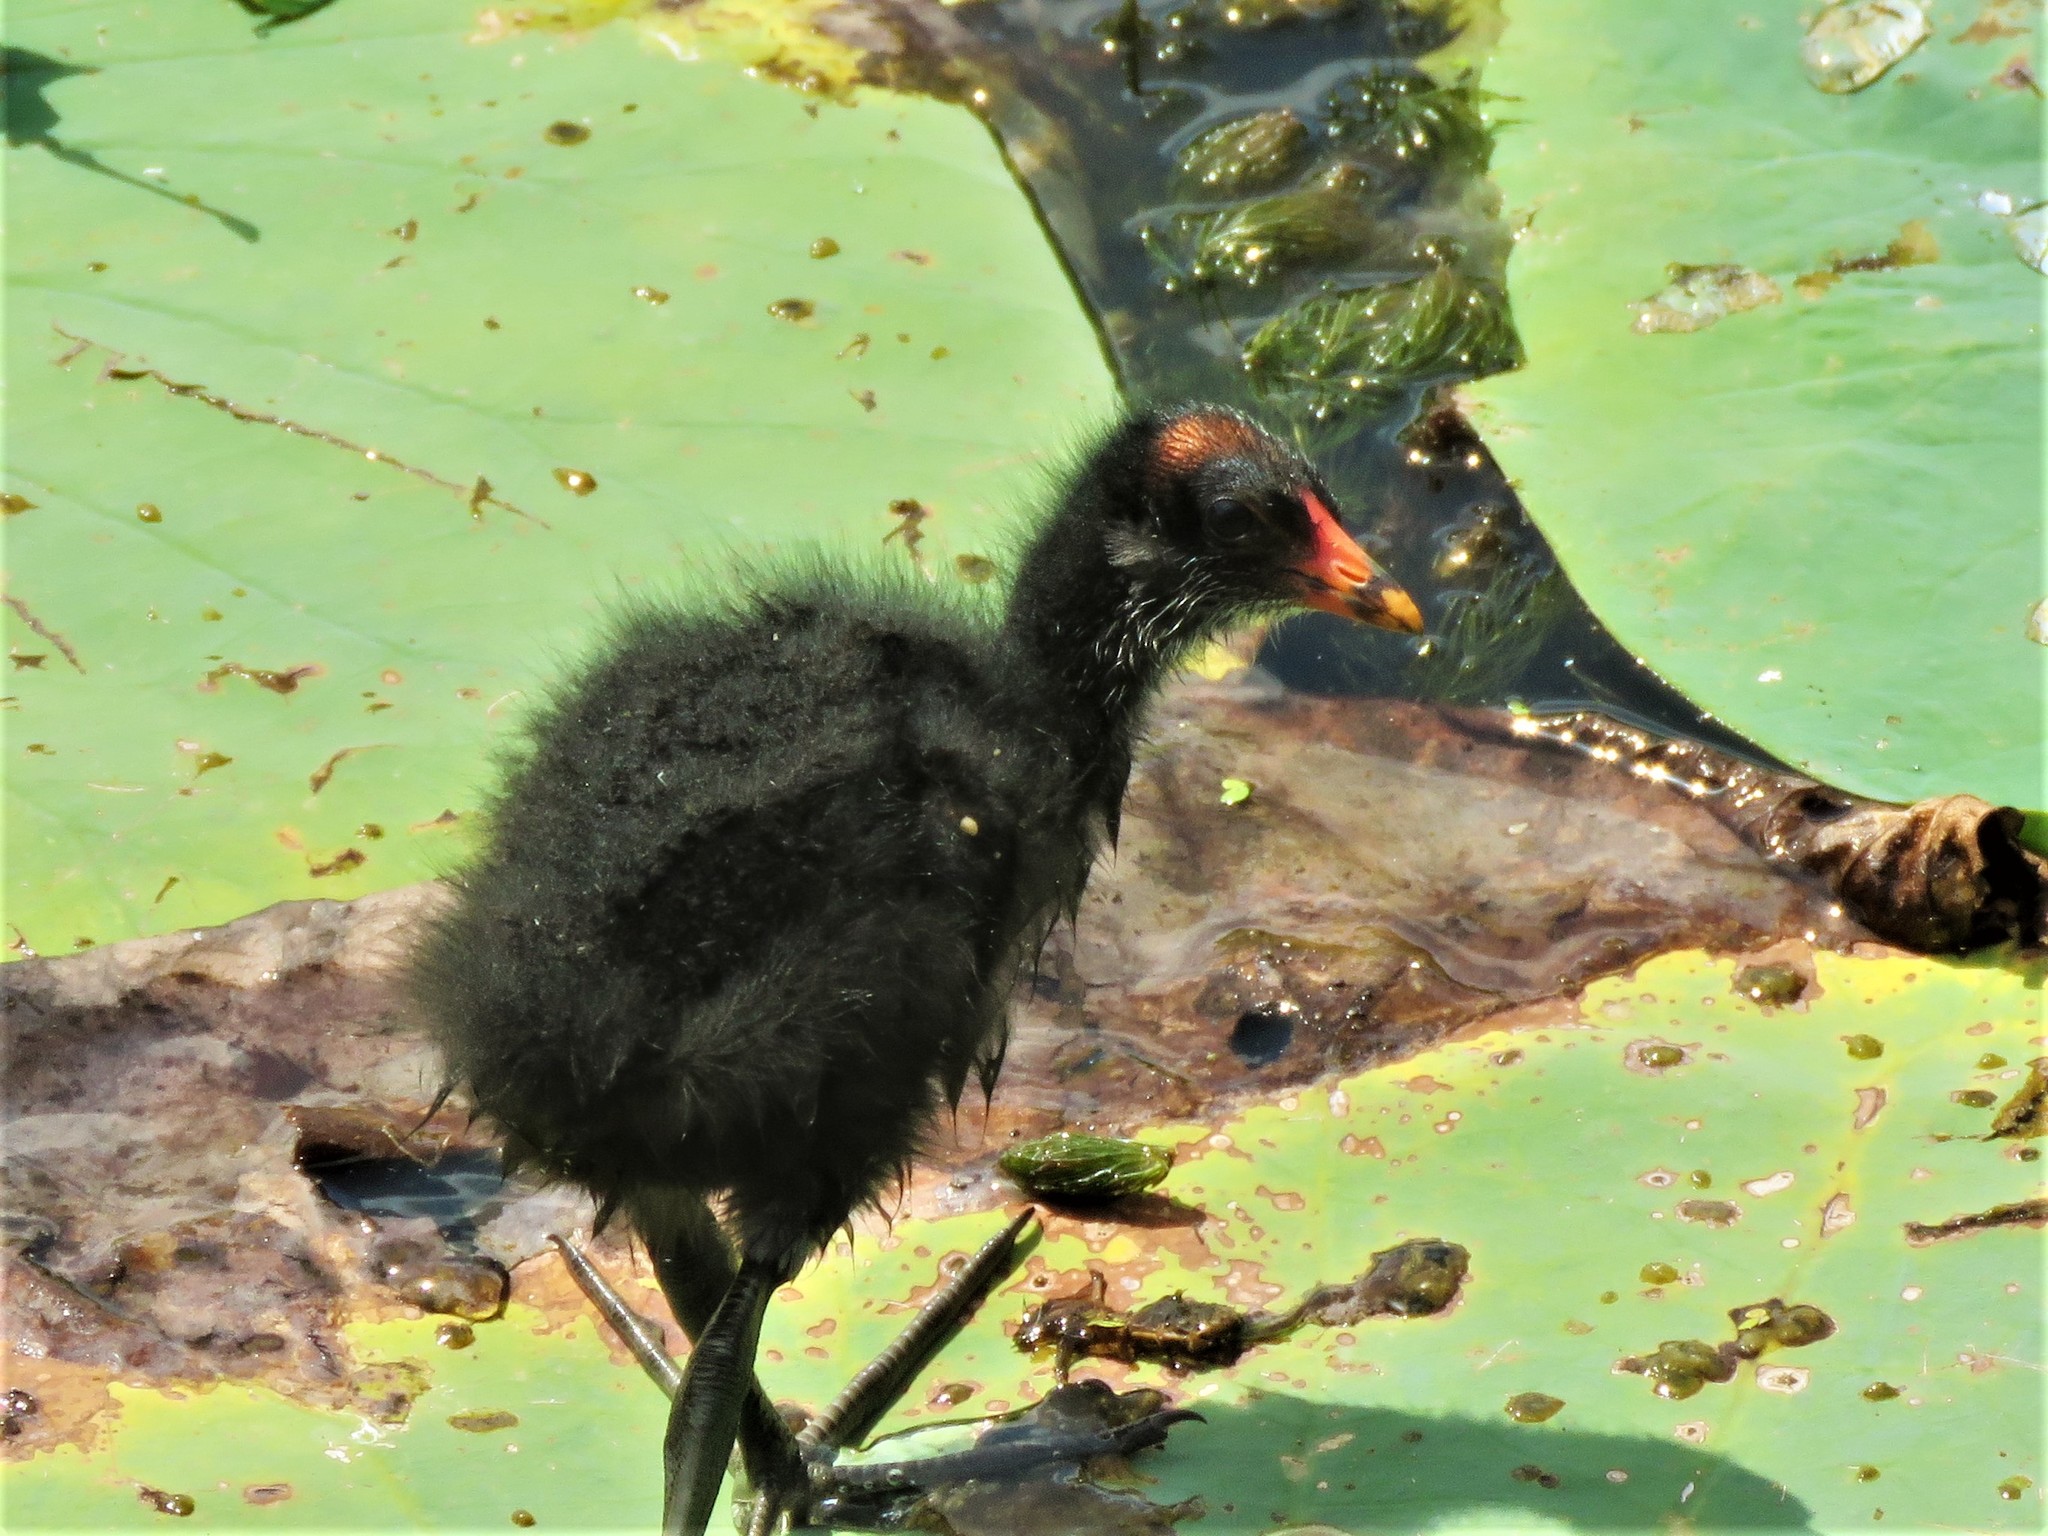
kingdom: Animalia
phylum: Chordata
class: Aves
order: Gruiformes
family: Rallidae
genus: Gallinula
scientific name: Gallinula chloropus
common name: Common moorhen
